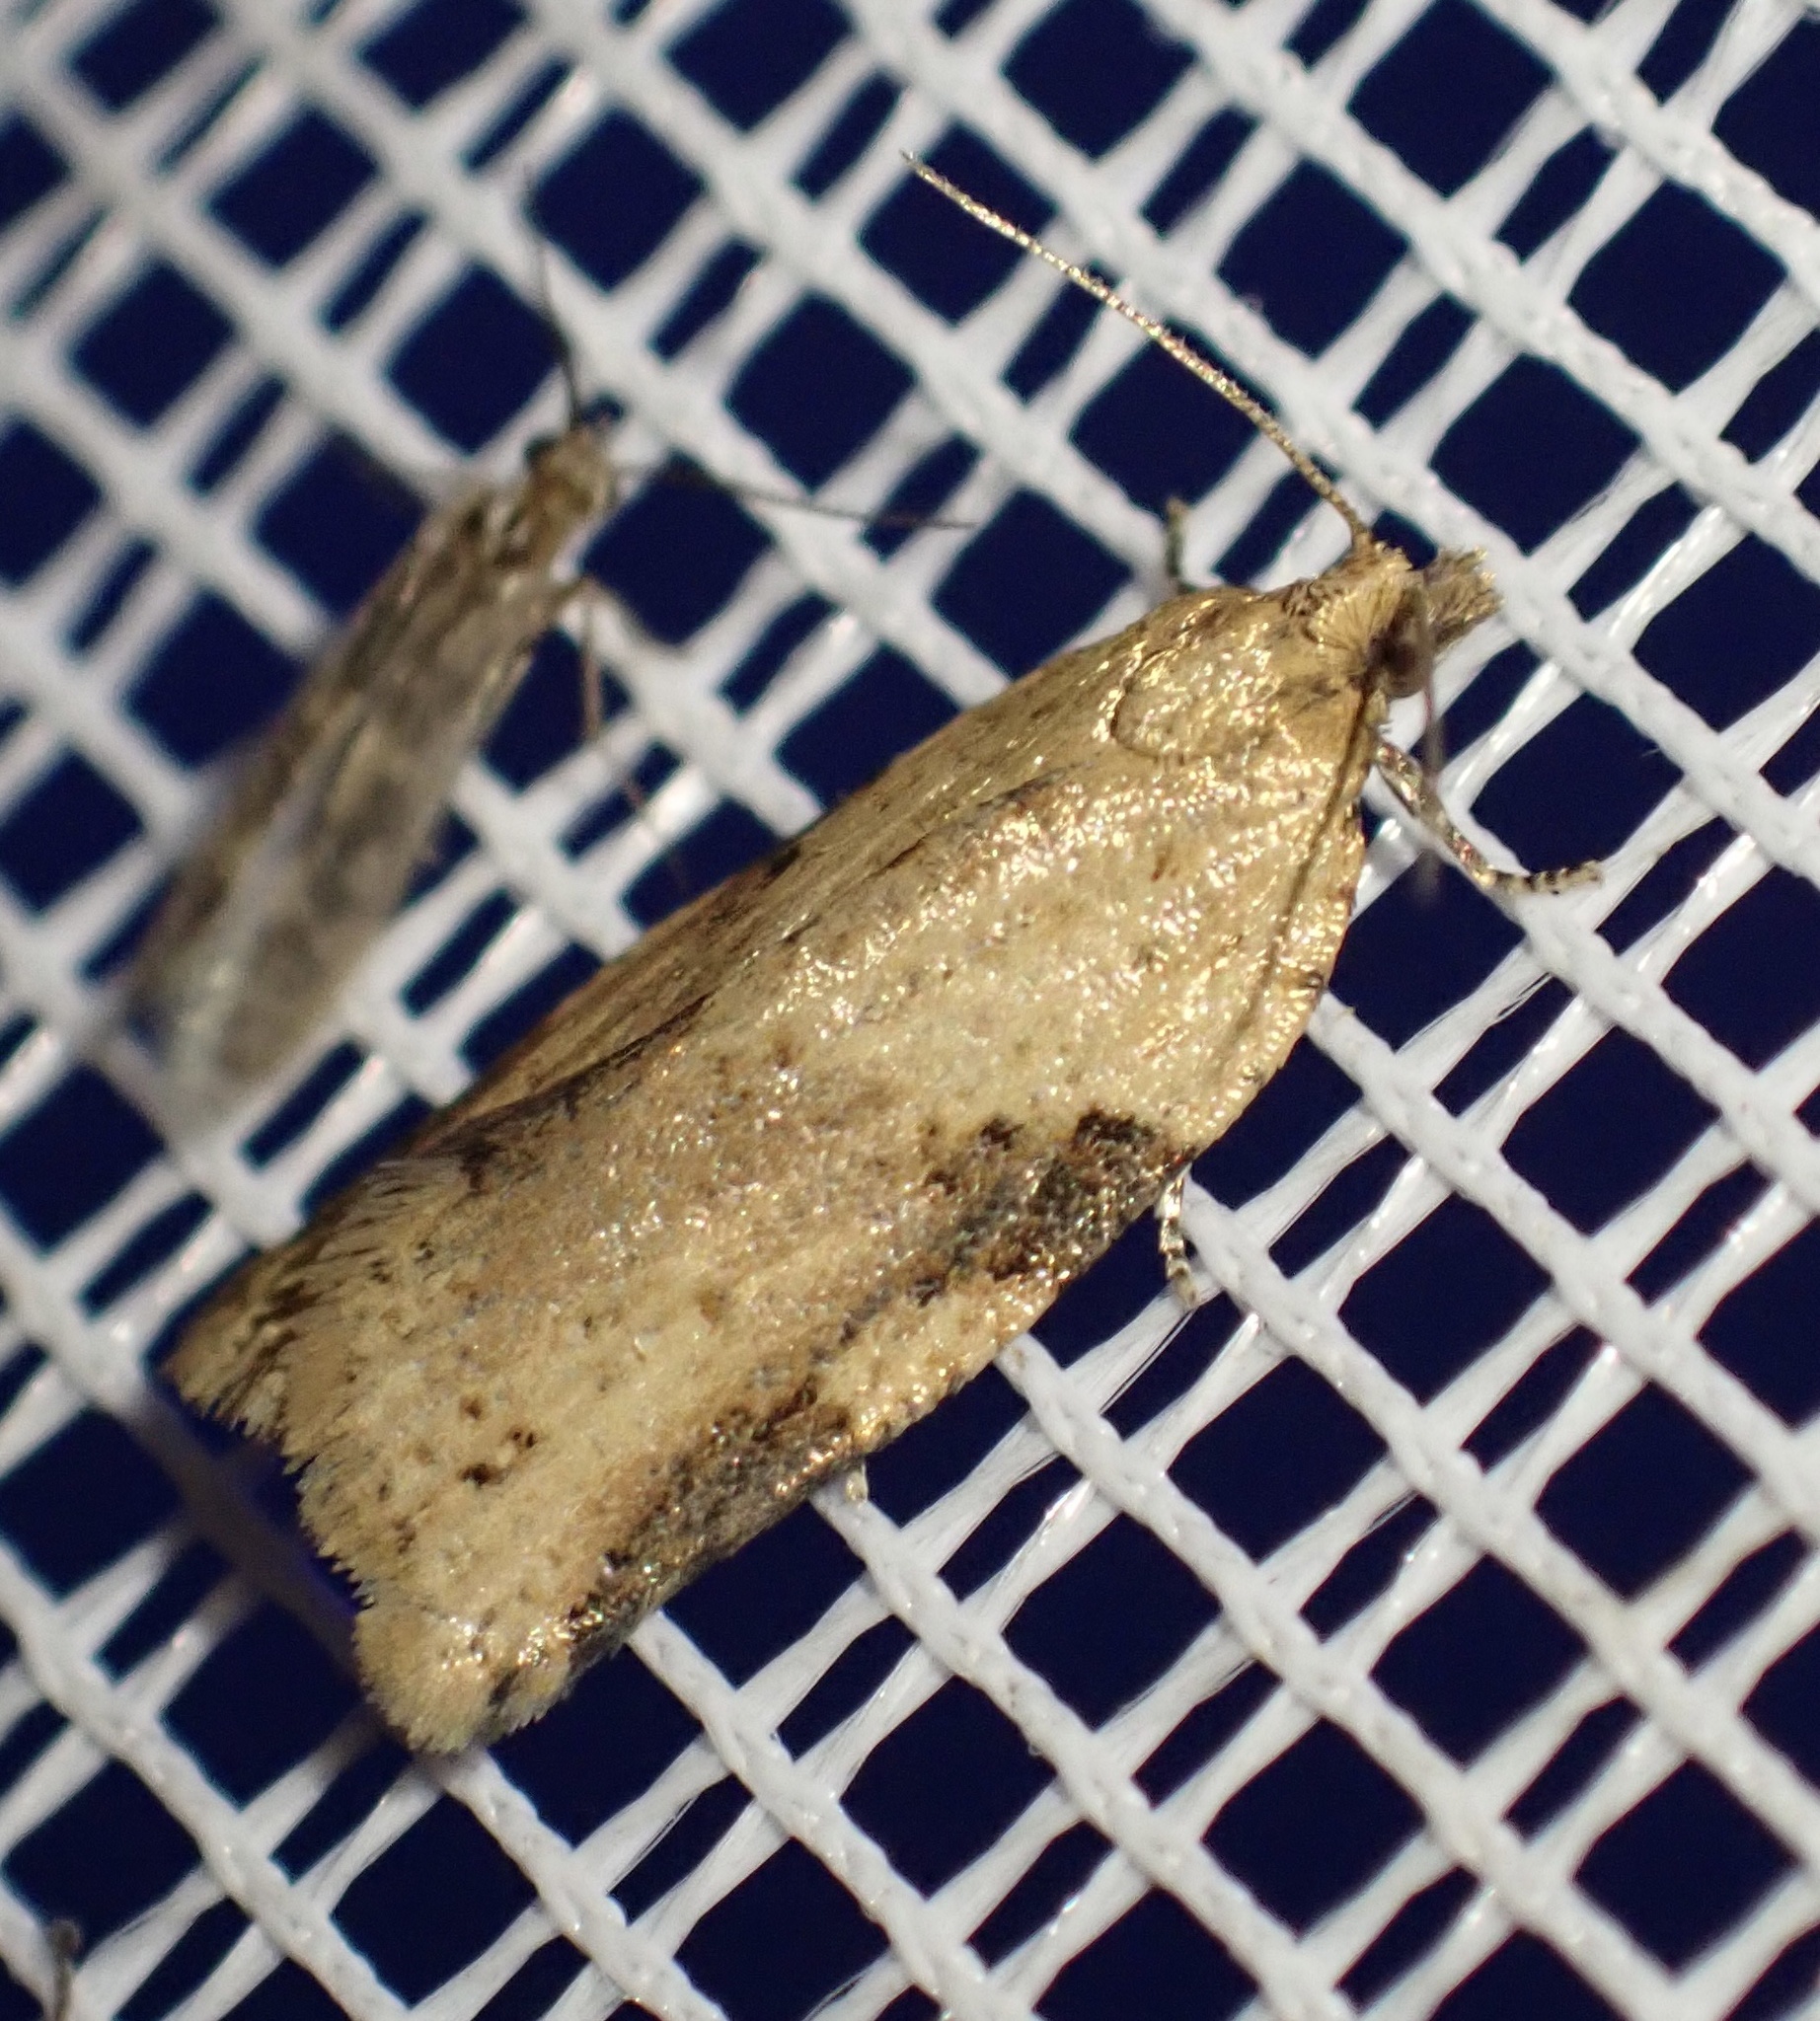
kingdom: Animalia
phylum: Arthropoda
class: Insecta
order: Lepidoptera
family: Tortricidae
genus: Clepsis
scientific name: Clepsis spectrana
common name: Cyclamen tortrix
